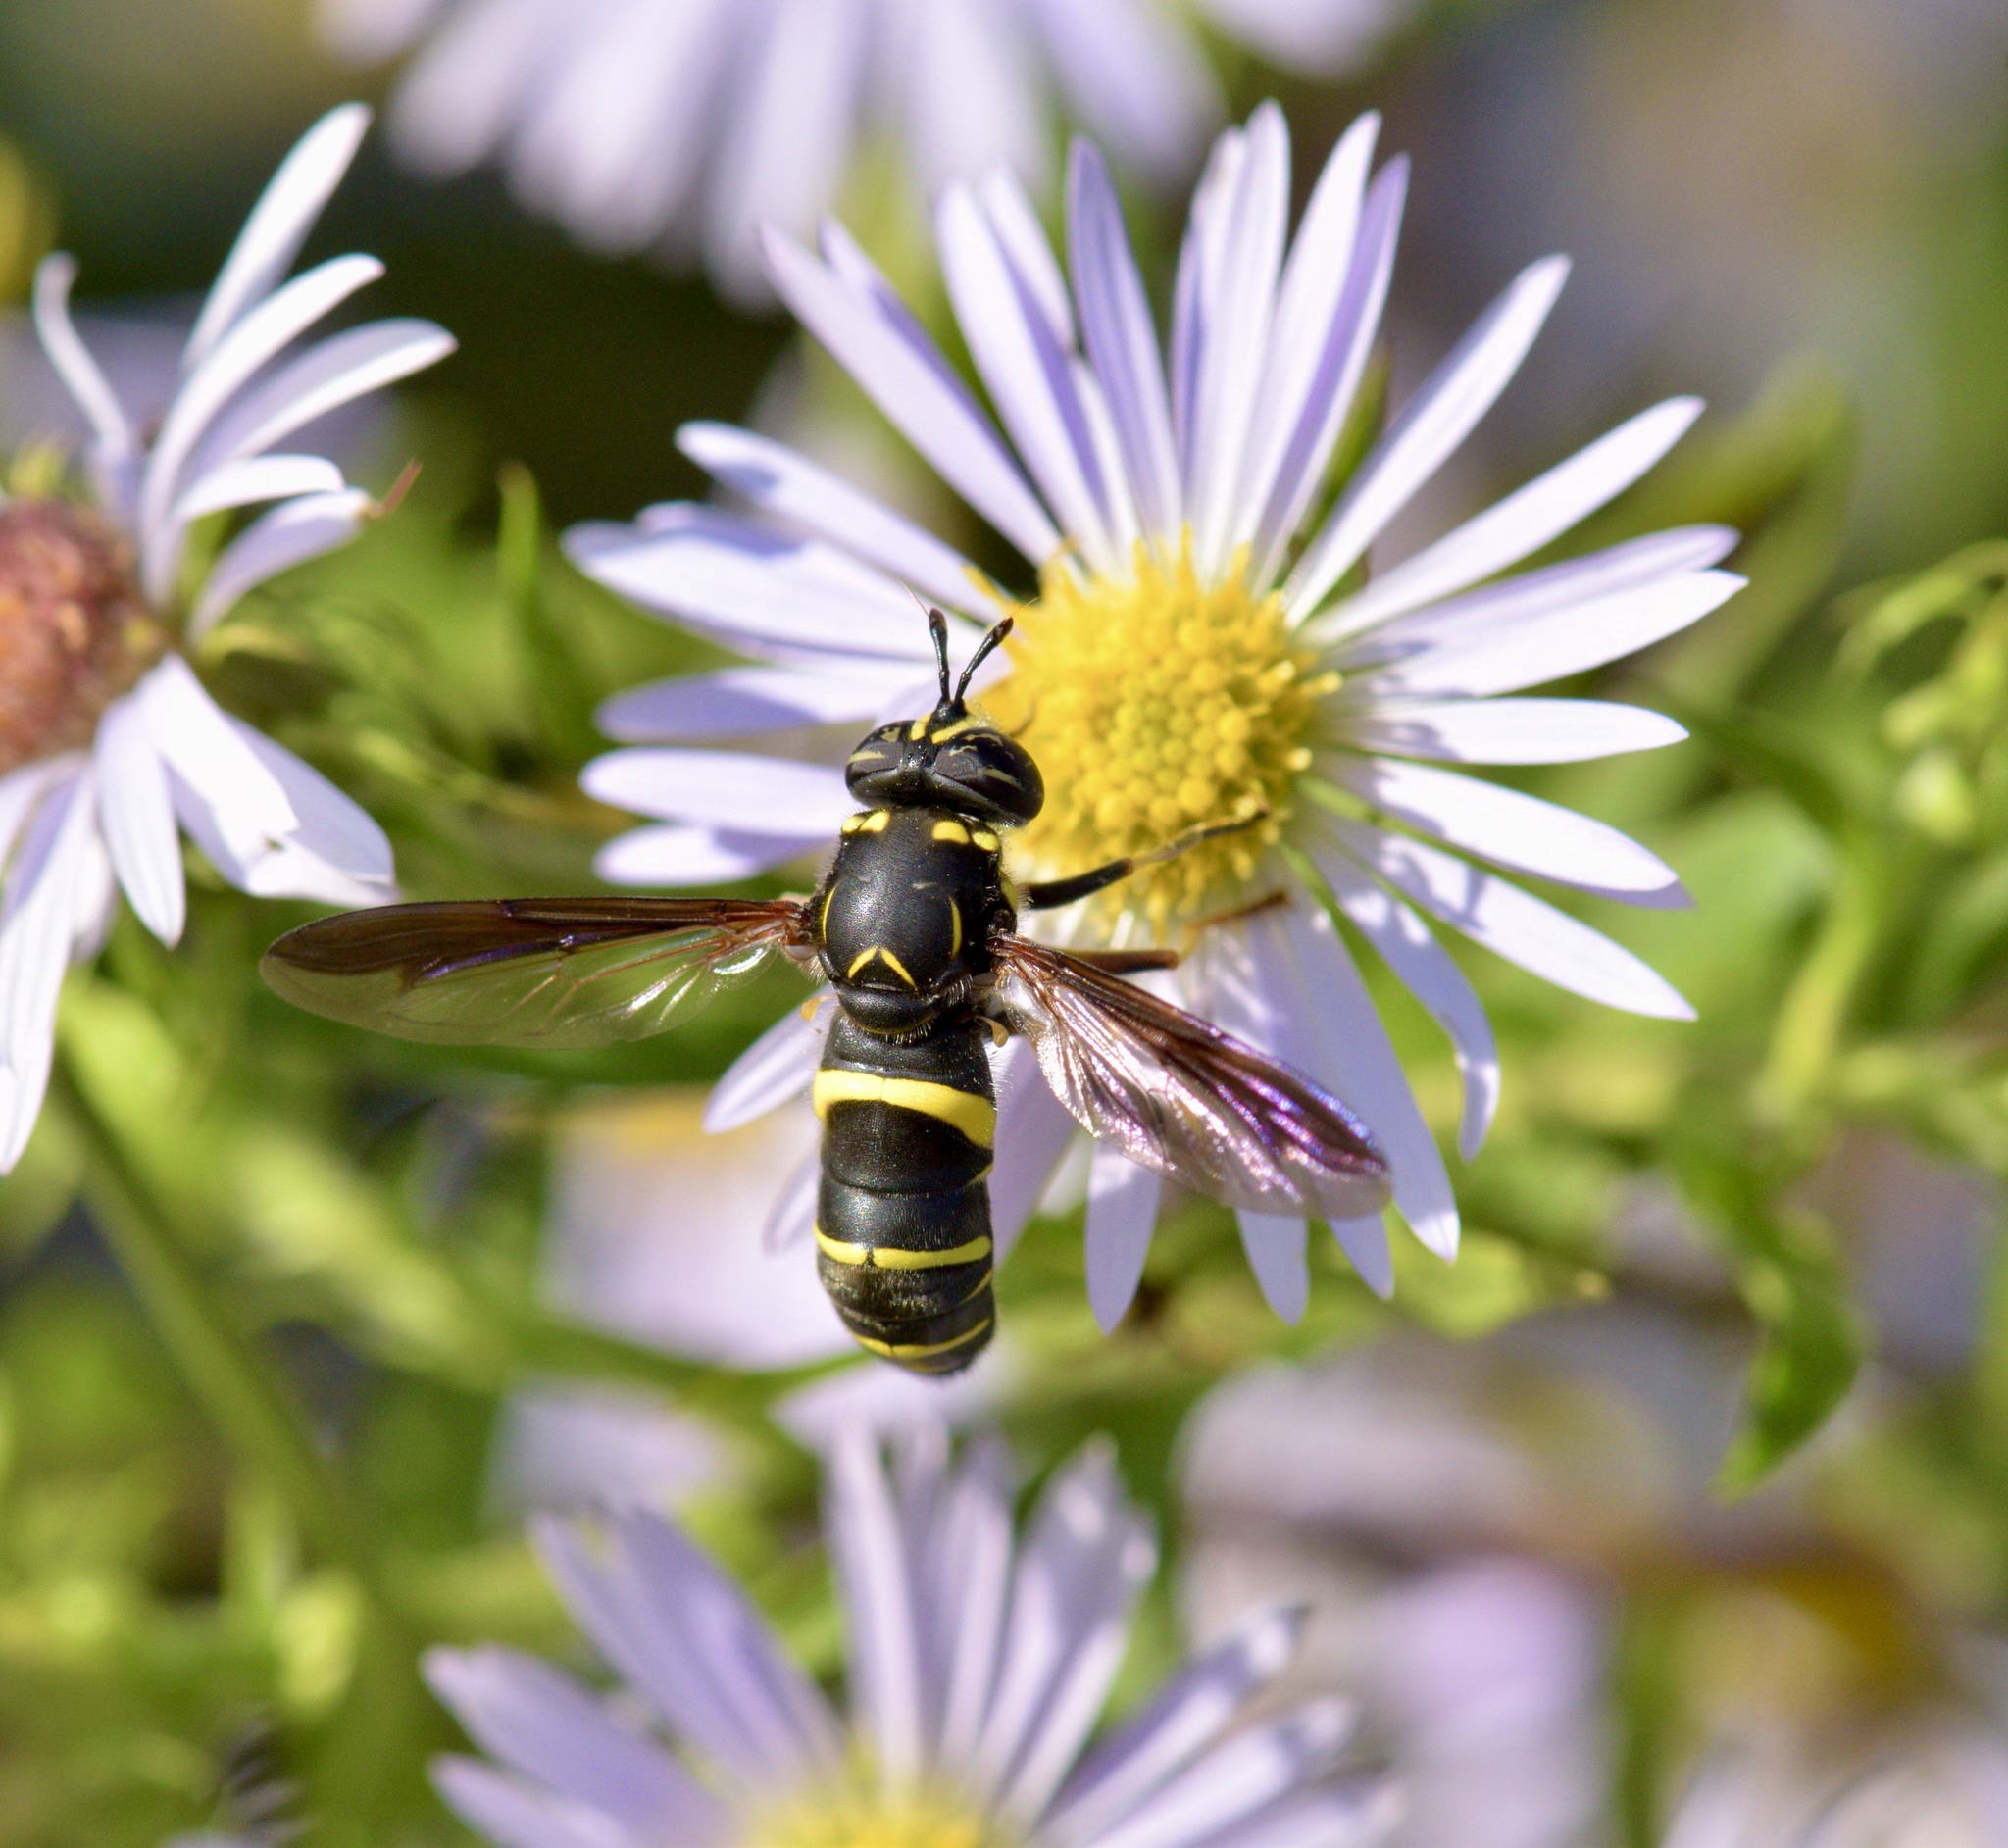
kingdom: Animalia
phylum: Arthropoda
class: Insecta
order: Diptera
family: Syrphidae
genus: Spilomyia
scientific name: Spilomyia sayi
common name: Four-lined hornet fly
